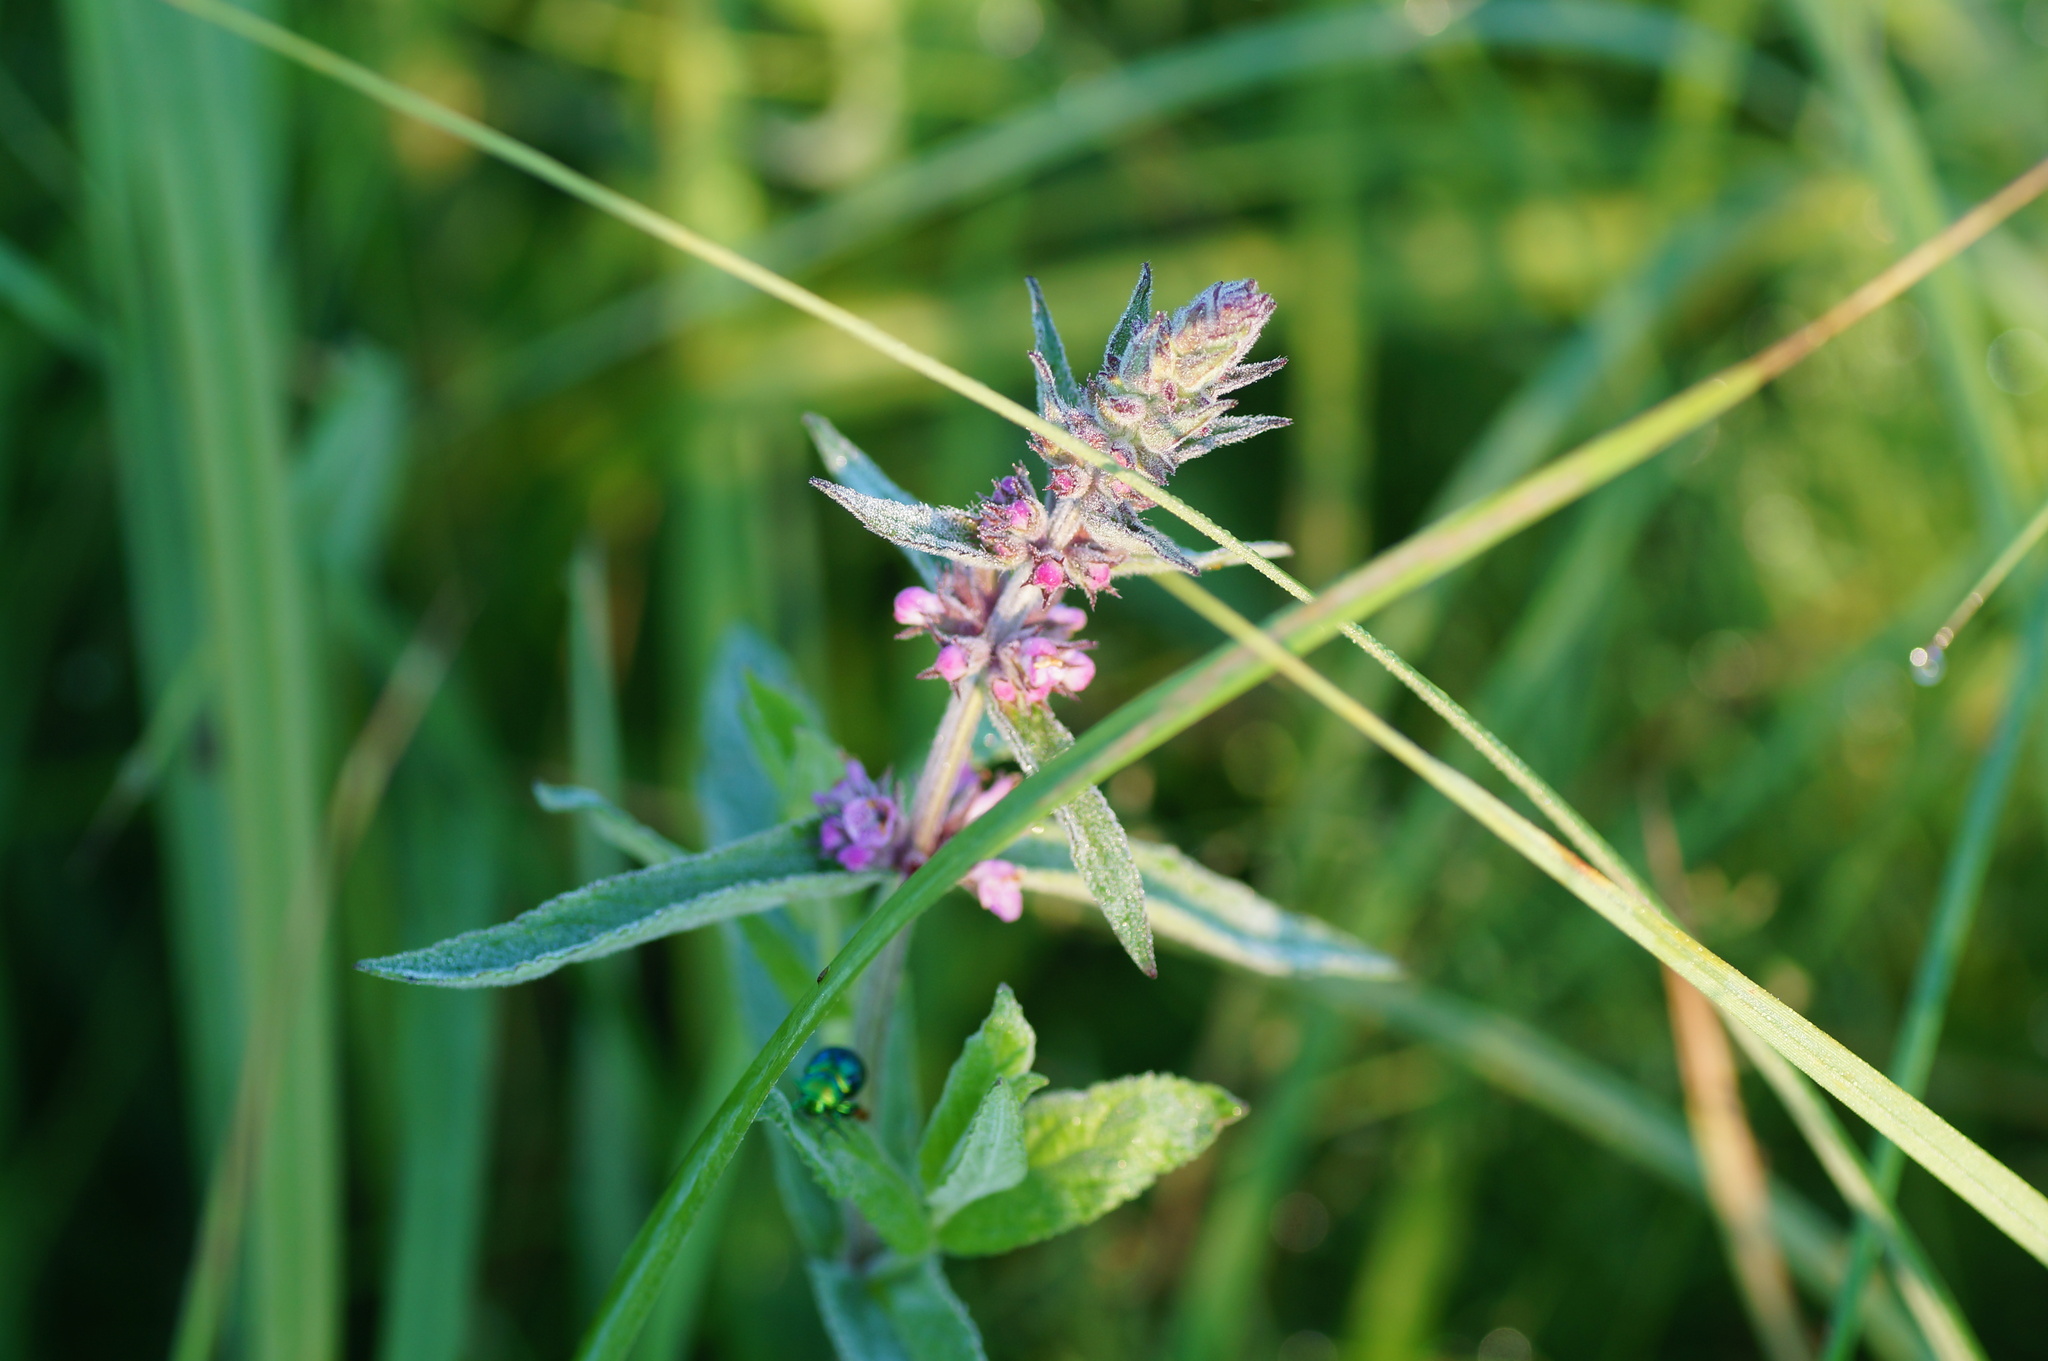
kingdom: Plantae
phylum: Tracheophyta
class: Magnoliopsida
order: Lamiales
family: Lamiaceae
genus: Stachys
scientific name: Stachys palustris
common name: Marsh woundwort
